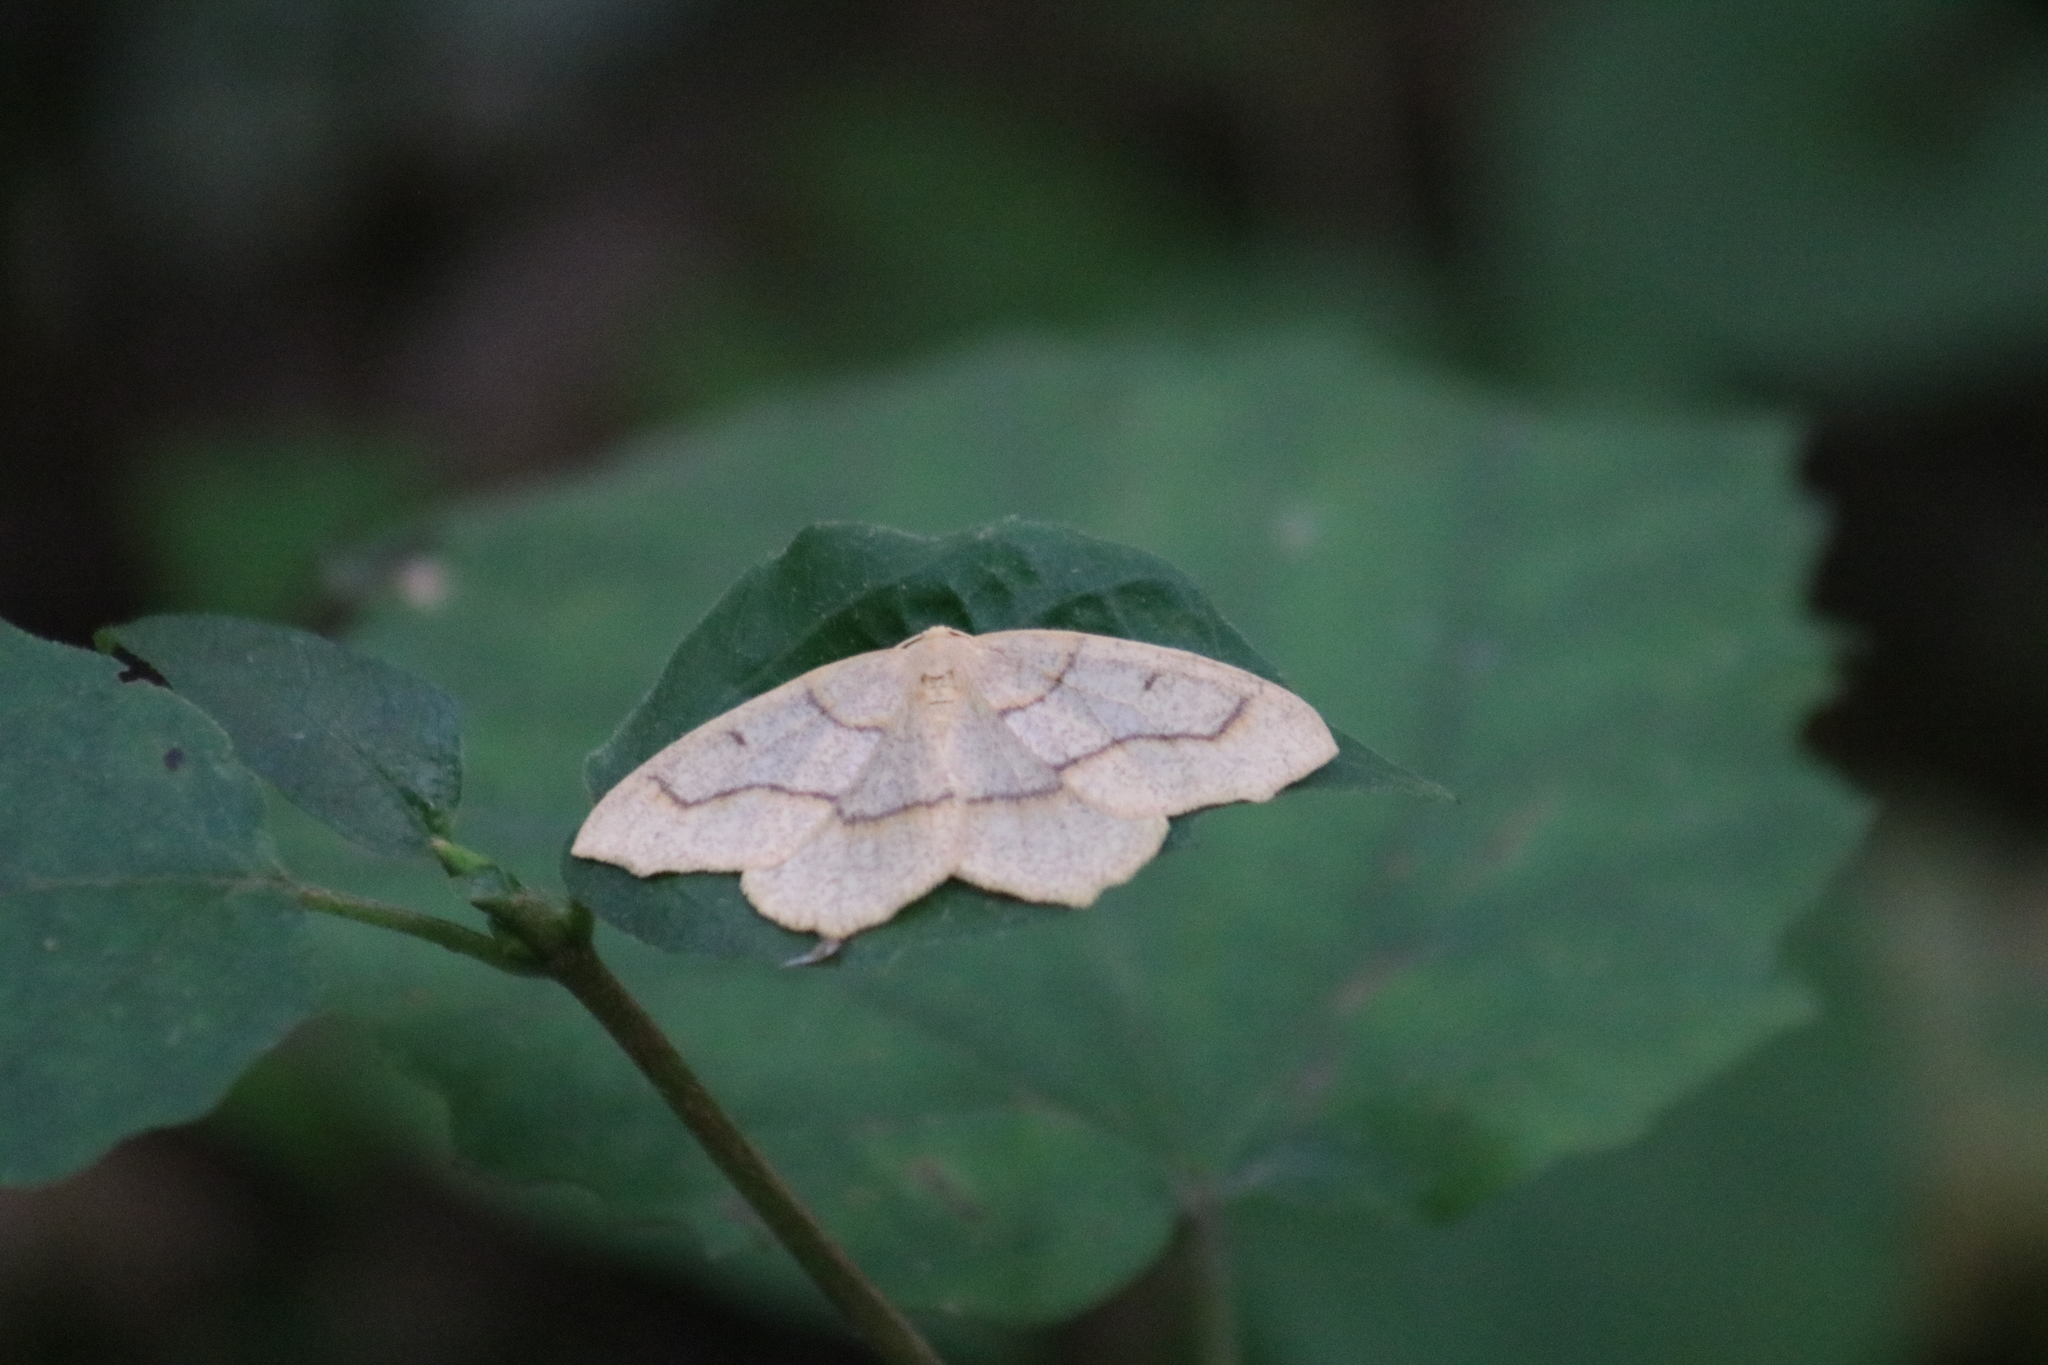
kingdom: Animalia
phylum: Arthropoda
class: Insecta
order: Lepidoptera
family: Geometridae
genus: Lambdina
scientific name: Lambdina fiscellaria
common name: Hemlock looper
